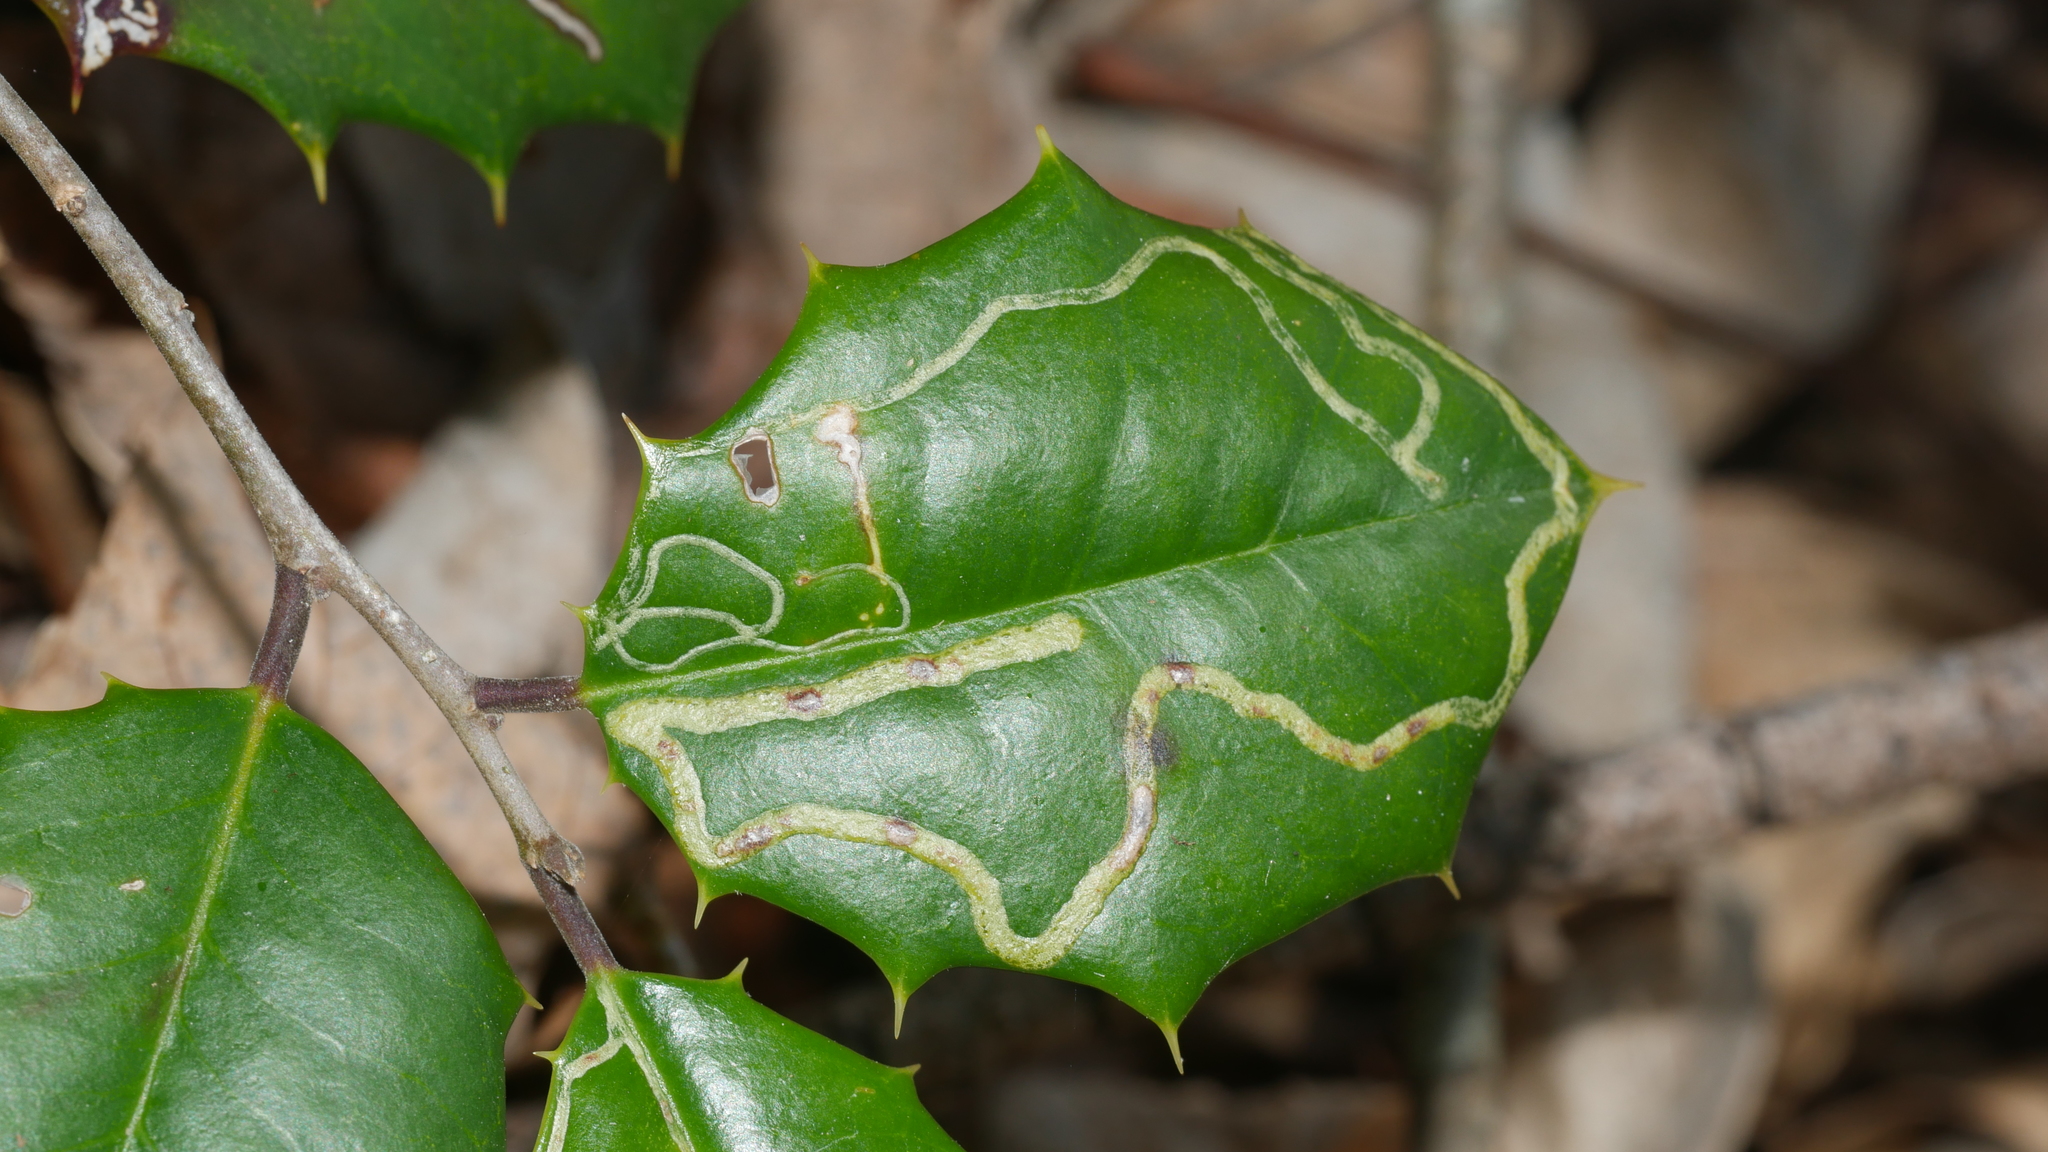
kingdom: Animalia
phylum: Arthropoda
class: Insecta
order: Diptera
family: Agromyzidae
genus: Phytomyza
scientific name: Phytomyza opacae
